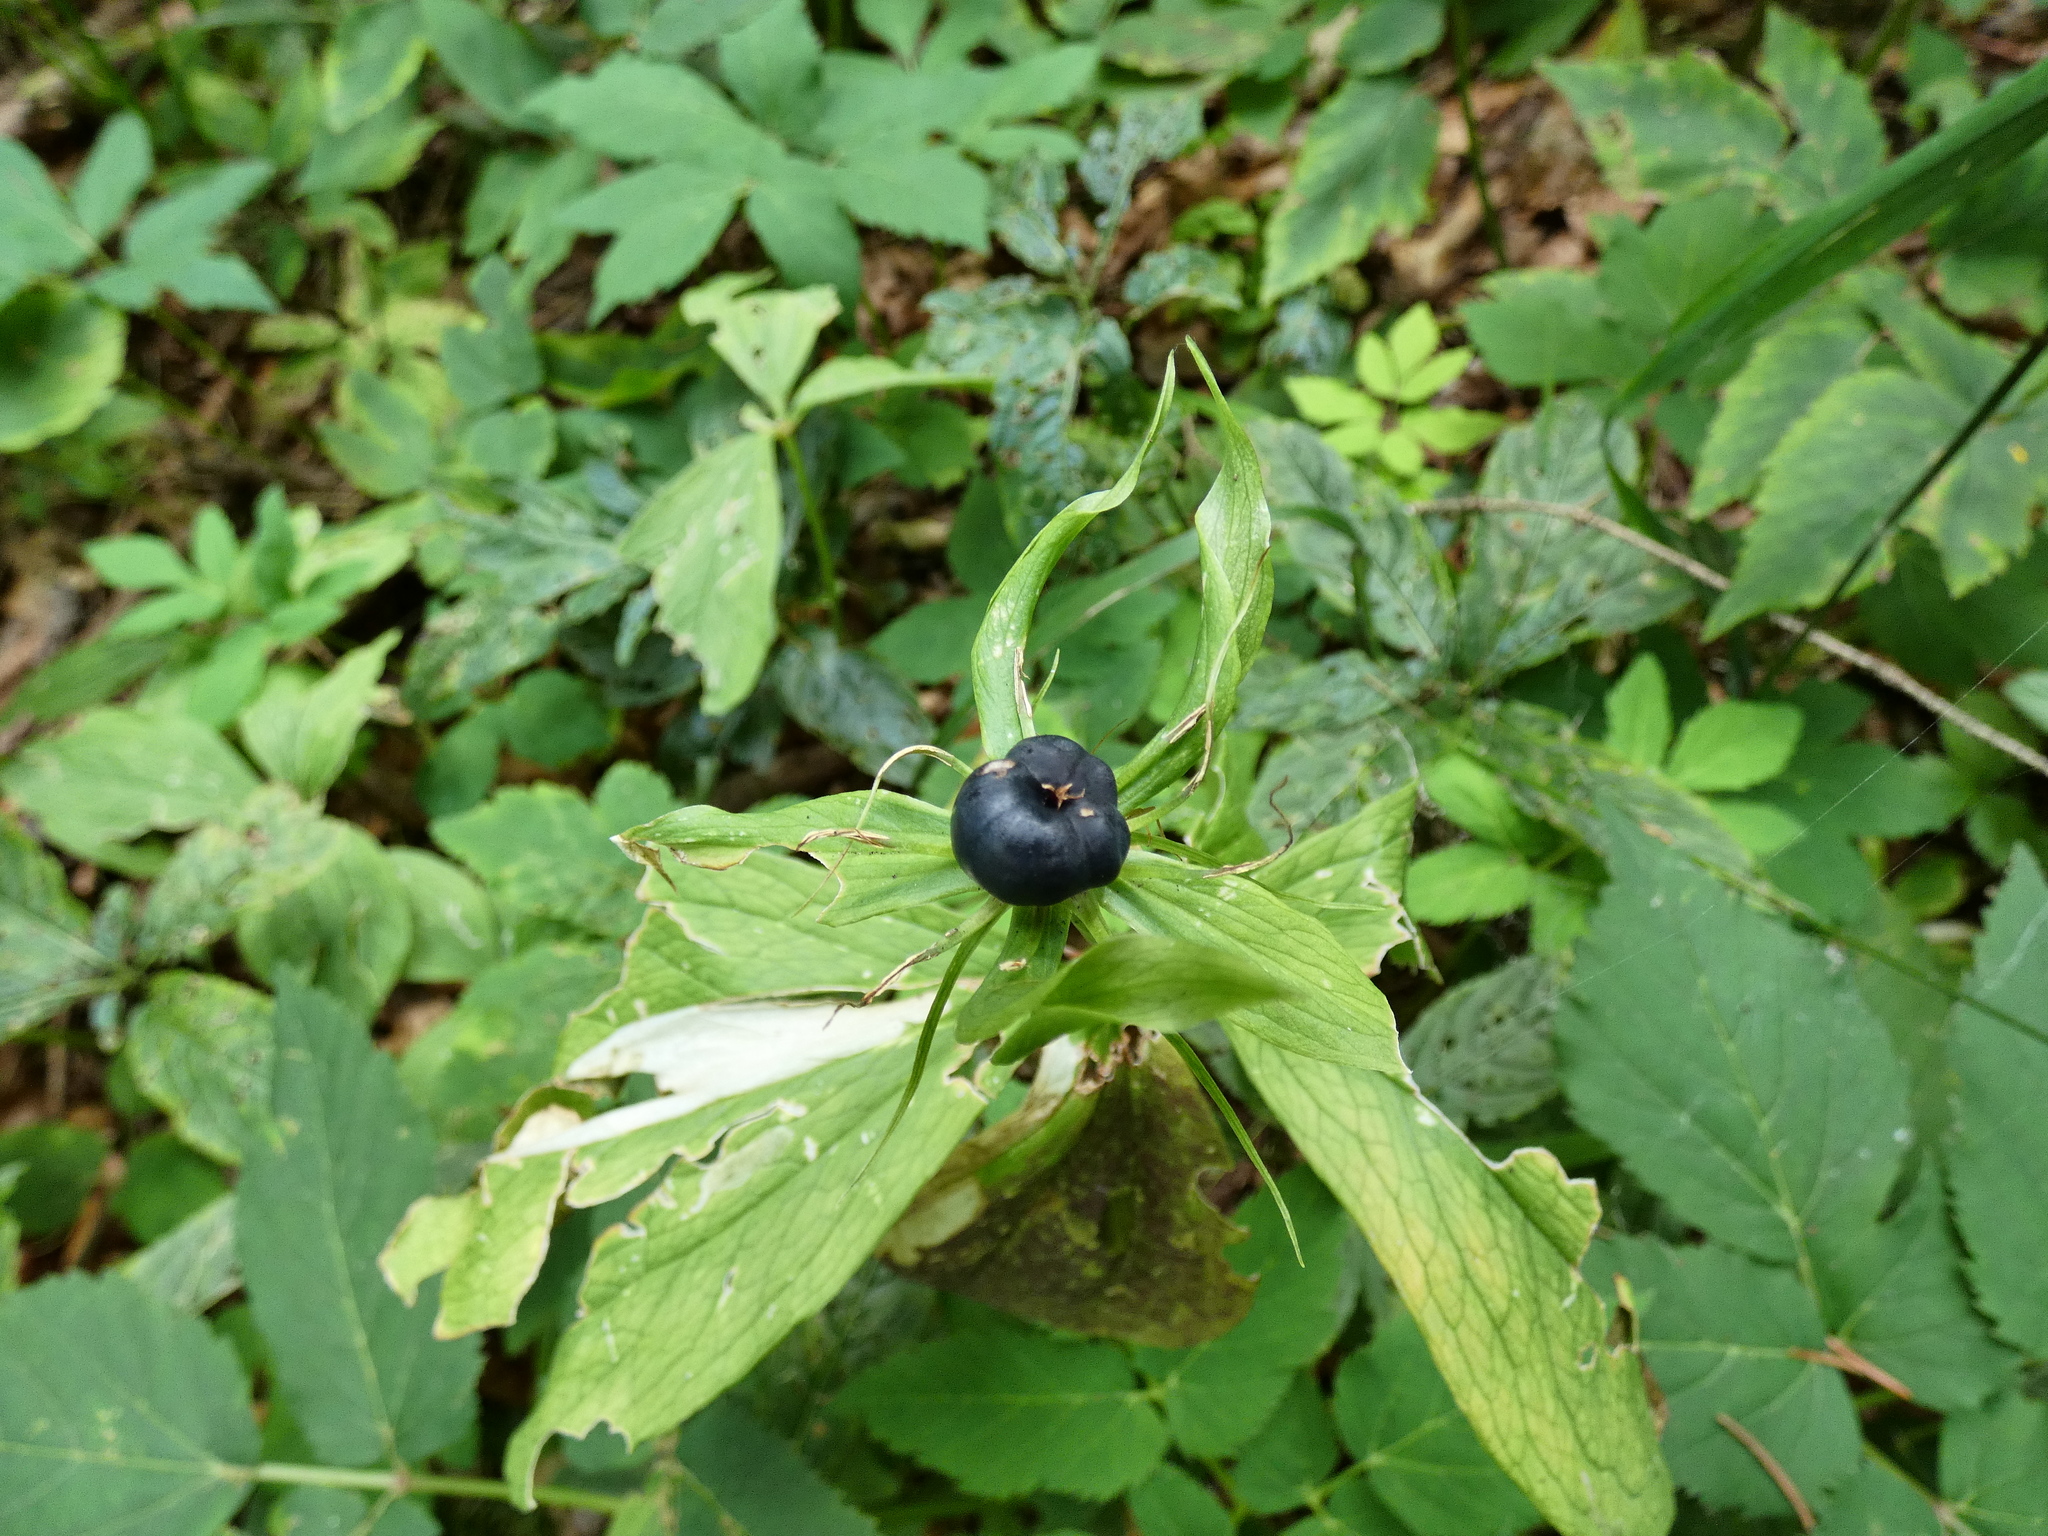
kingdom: Plantae
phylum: Tracheophyta
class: Liliopsida
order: Liliales
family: Melanthiaceae
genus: Paris
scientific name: Paris quadrifolia
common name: Herb-paris
